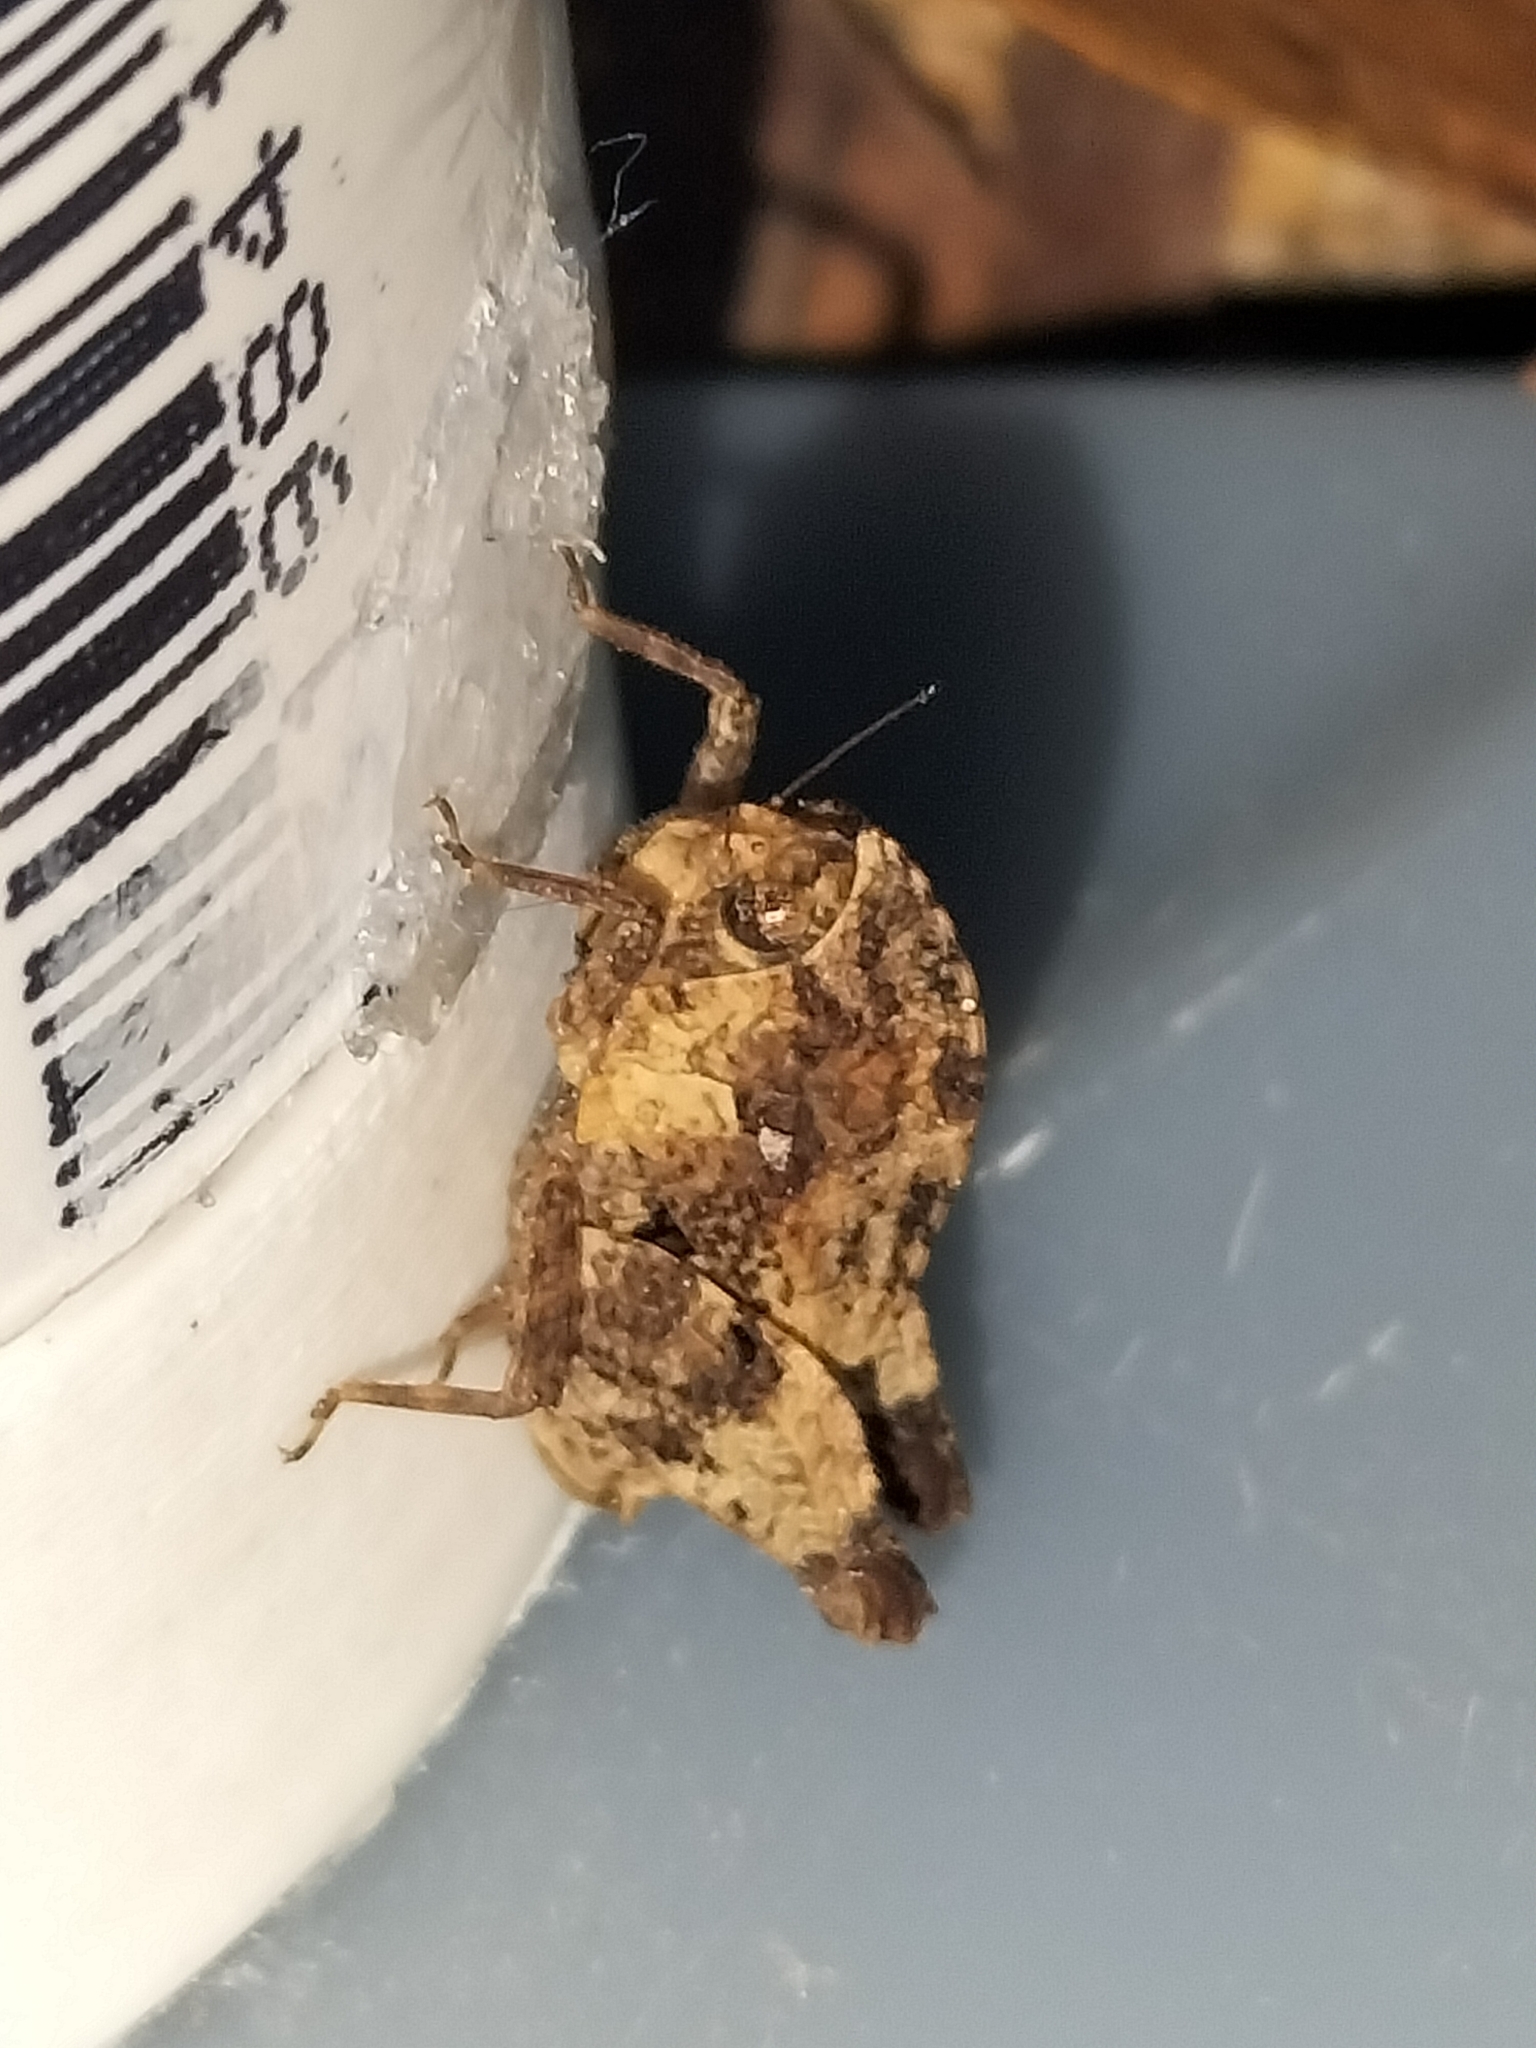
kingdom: Animalia
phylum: Arthropoda
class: Insecta
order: Orthoptera
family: Tetrigidae
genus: Selivinga
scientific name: Selivinga tribulata
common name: Tribulation helmed groundhopper
